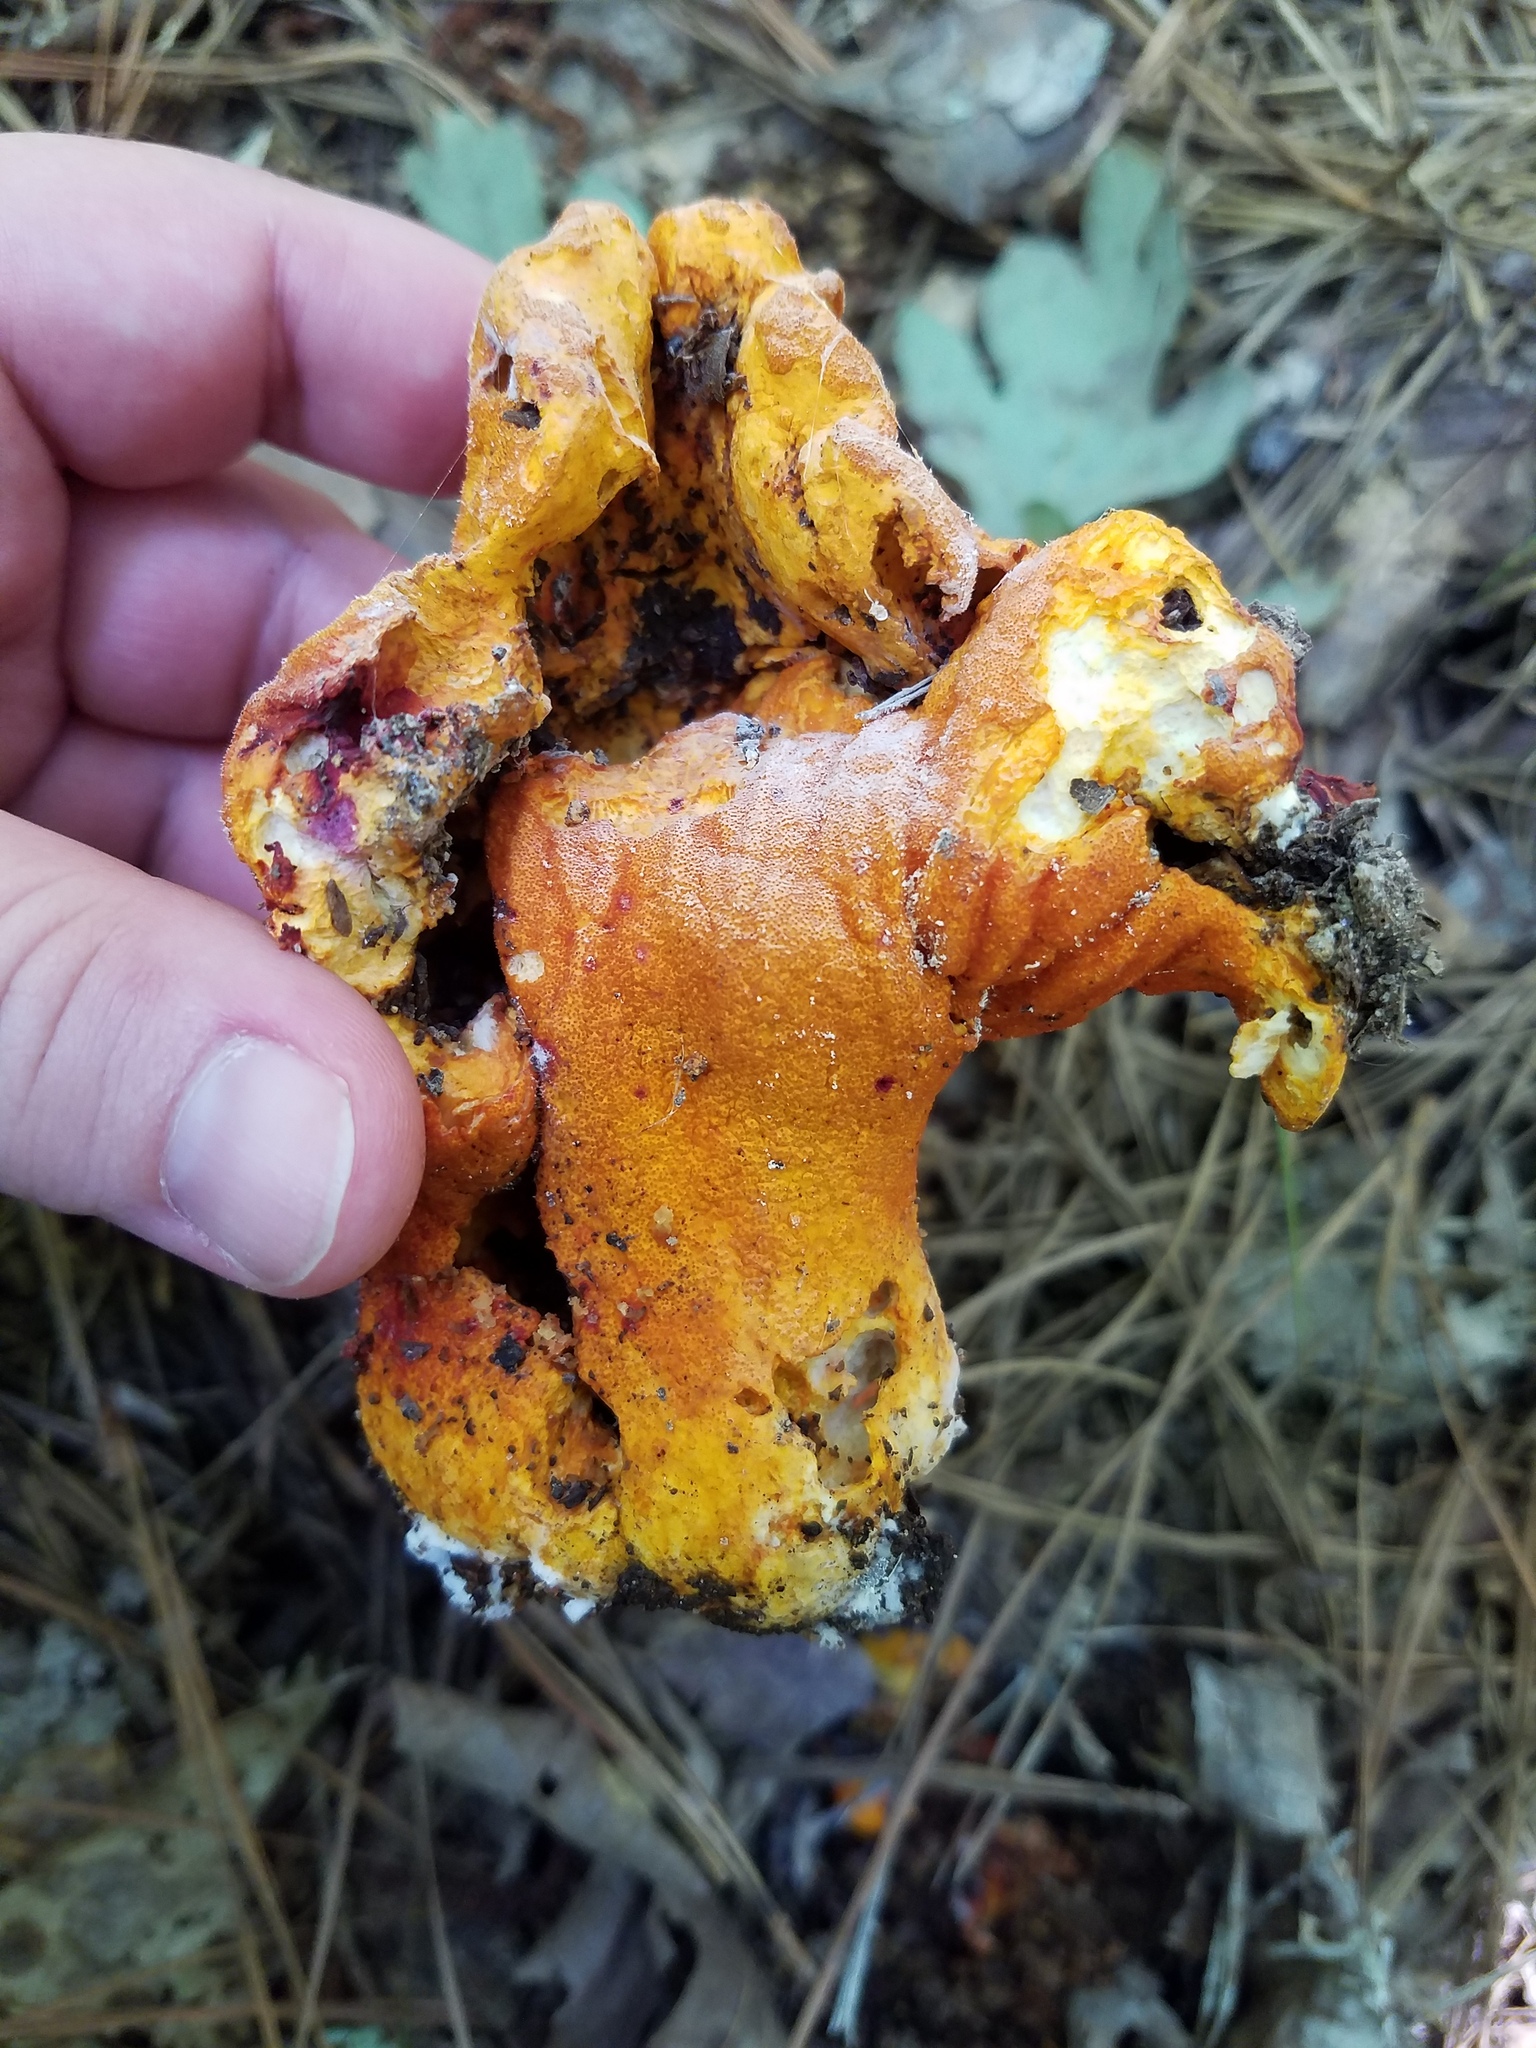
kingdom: Fungi
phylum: Ascomycota
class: Sordariomycetes
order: Hypocreales
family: Hypocreaceae
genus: Hypomyces
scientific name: Hypomyces lactifluorum
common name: Lobster mushroom
